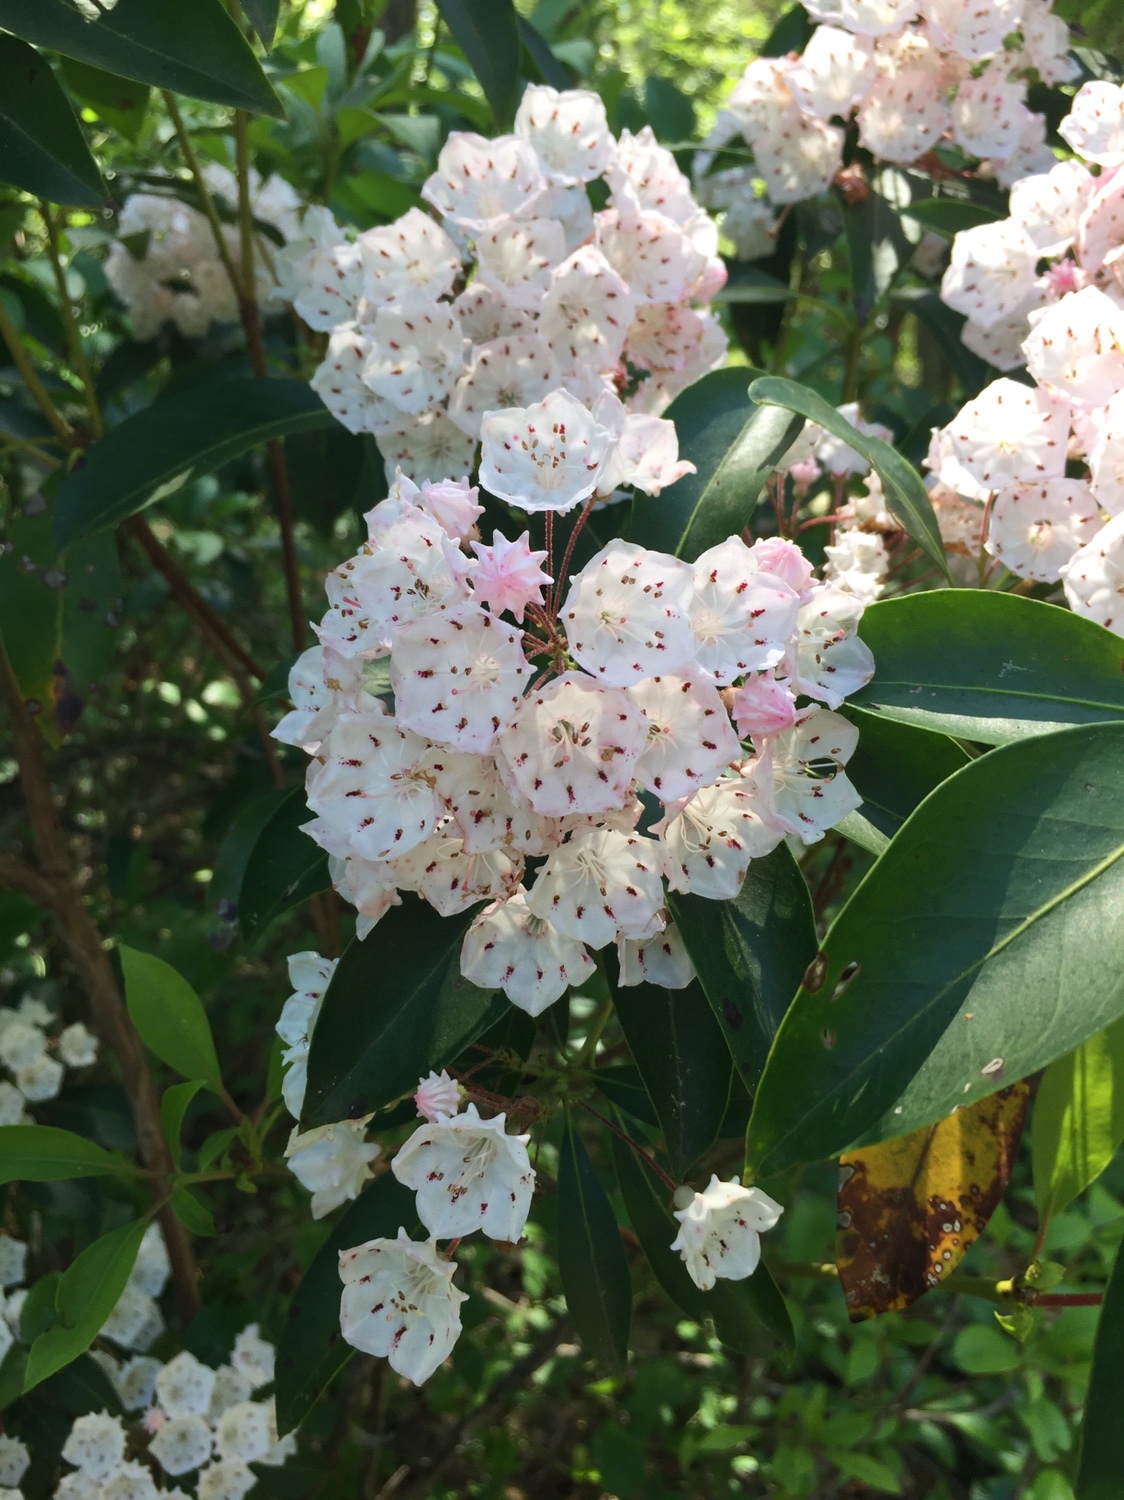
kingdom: Plantae
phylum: Tracheophyta
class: Magnoliopsida
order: Ericales
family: Ericaceae
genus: Kalmia
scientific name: Kalmia latifolia
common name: Mountain-laurel
